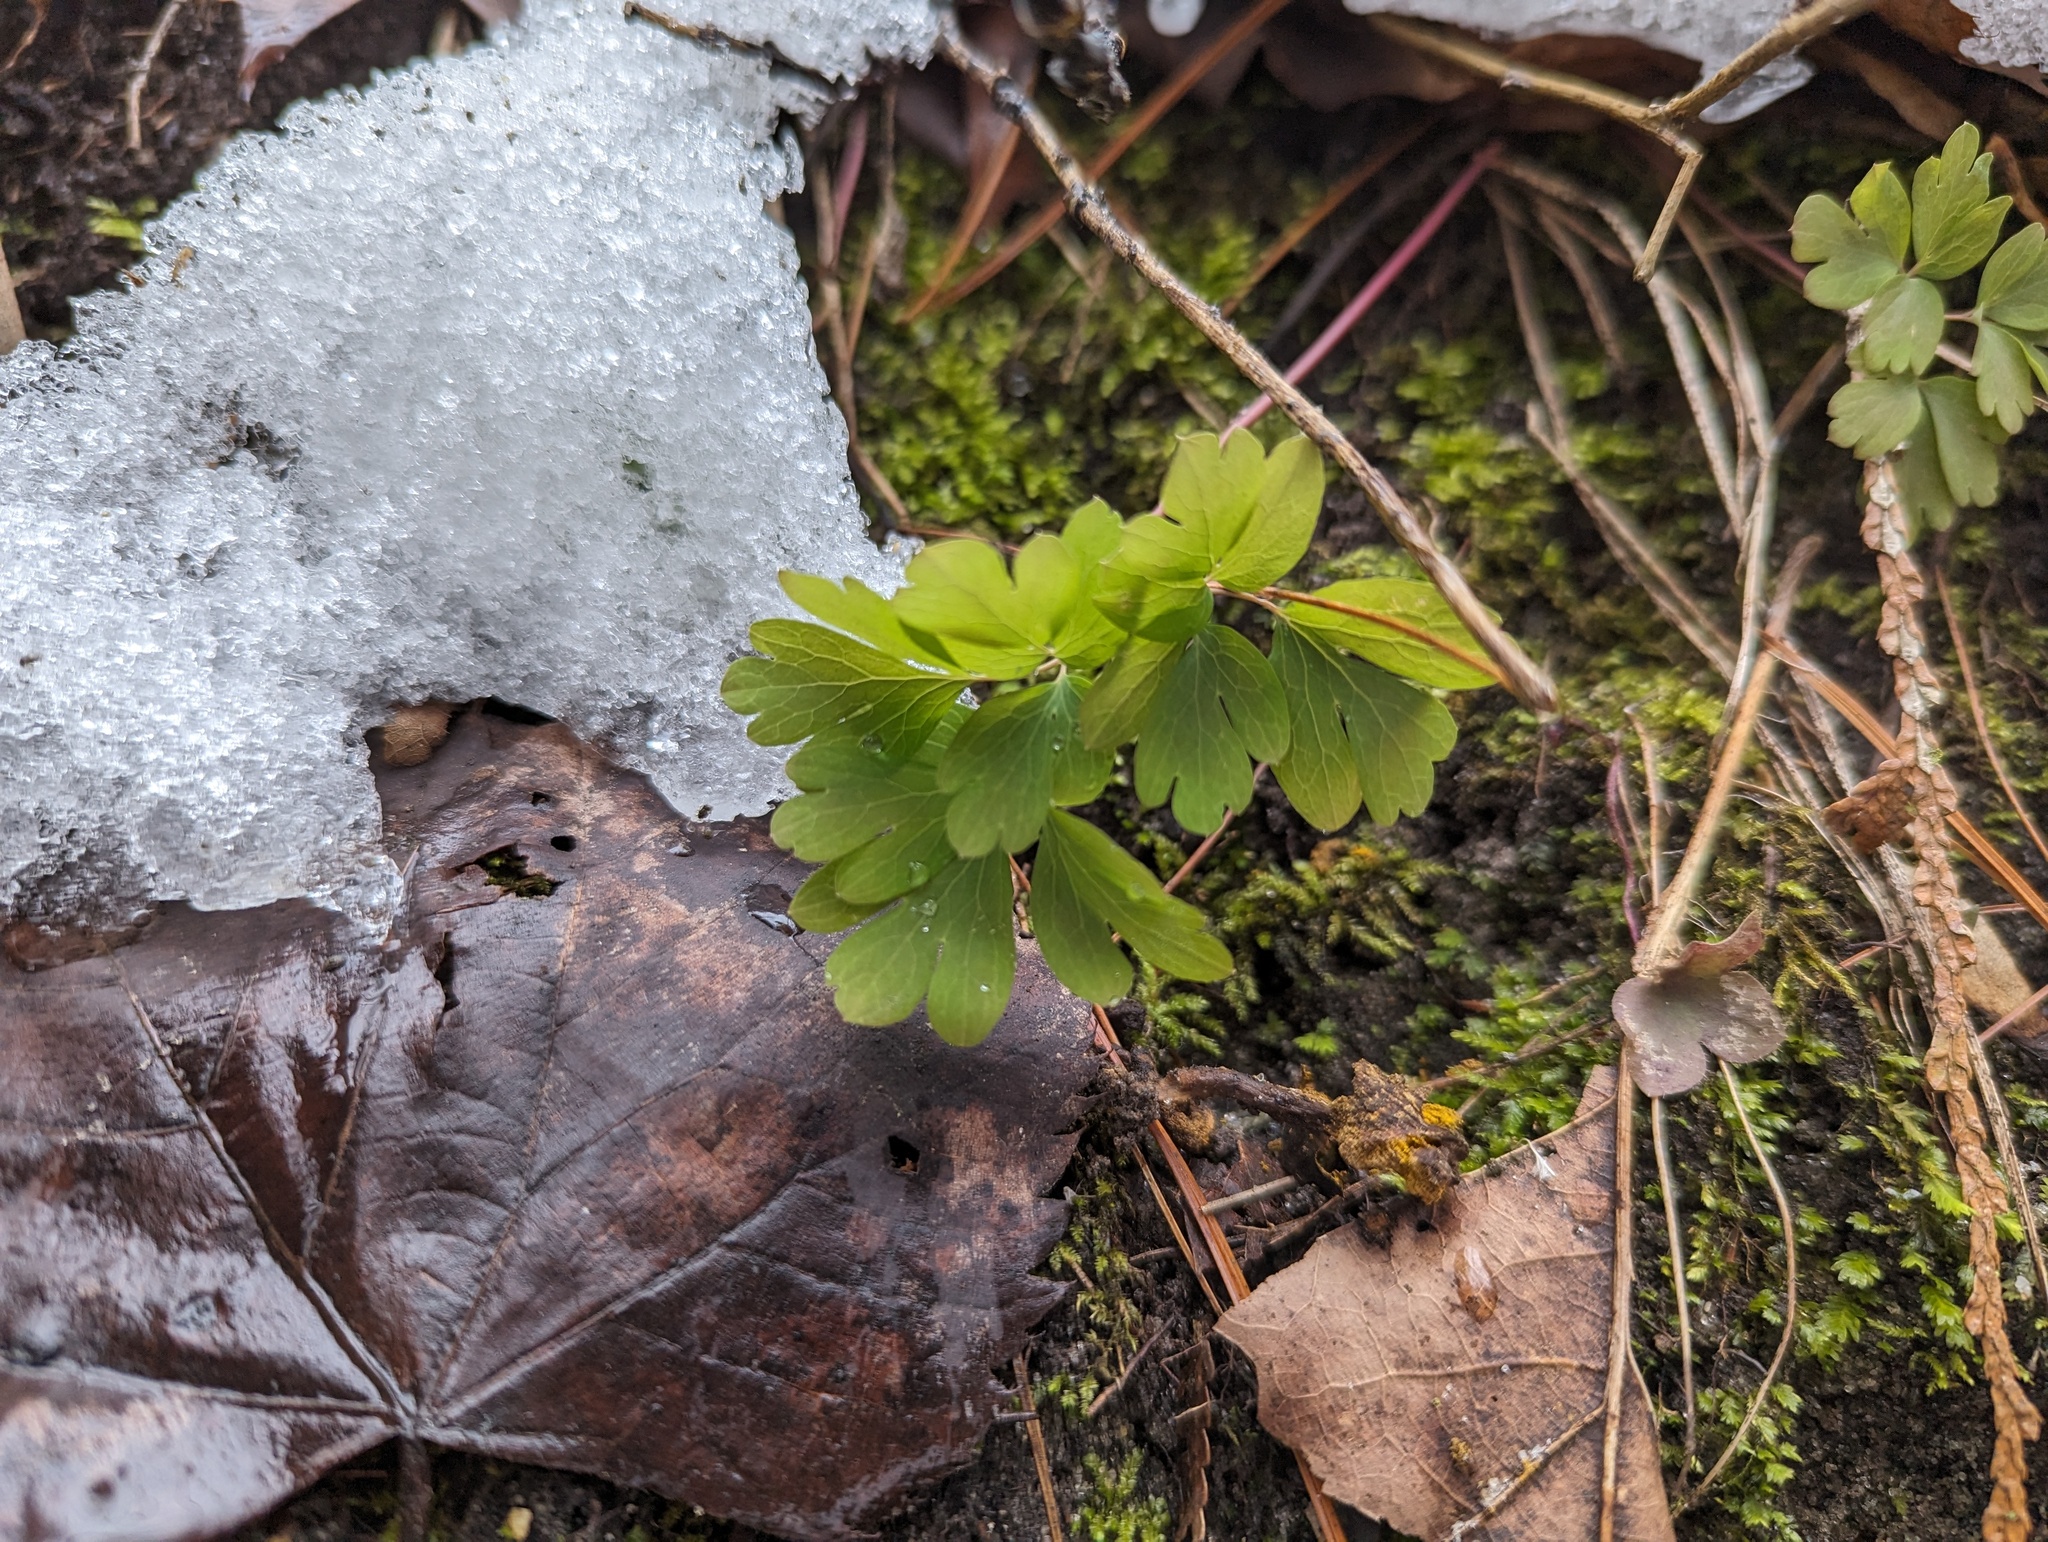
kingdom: Plantae
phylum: Tracheophyta
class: Magnoliopsida
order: Ranunculales
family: Ranunculaceae
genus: Enemion
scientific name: Enemion biternatum
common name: Eastern false rue-anemone
